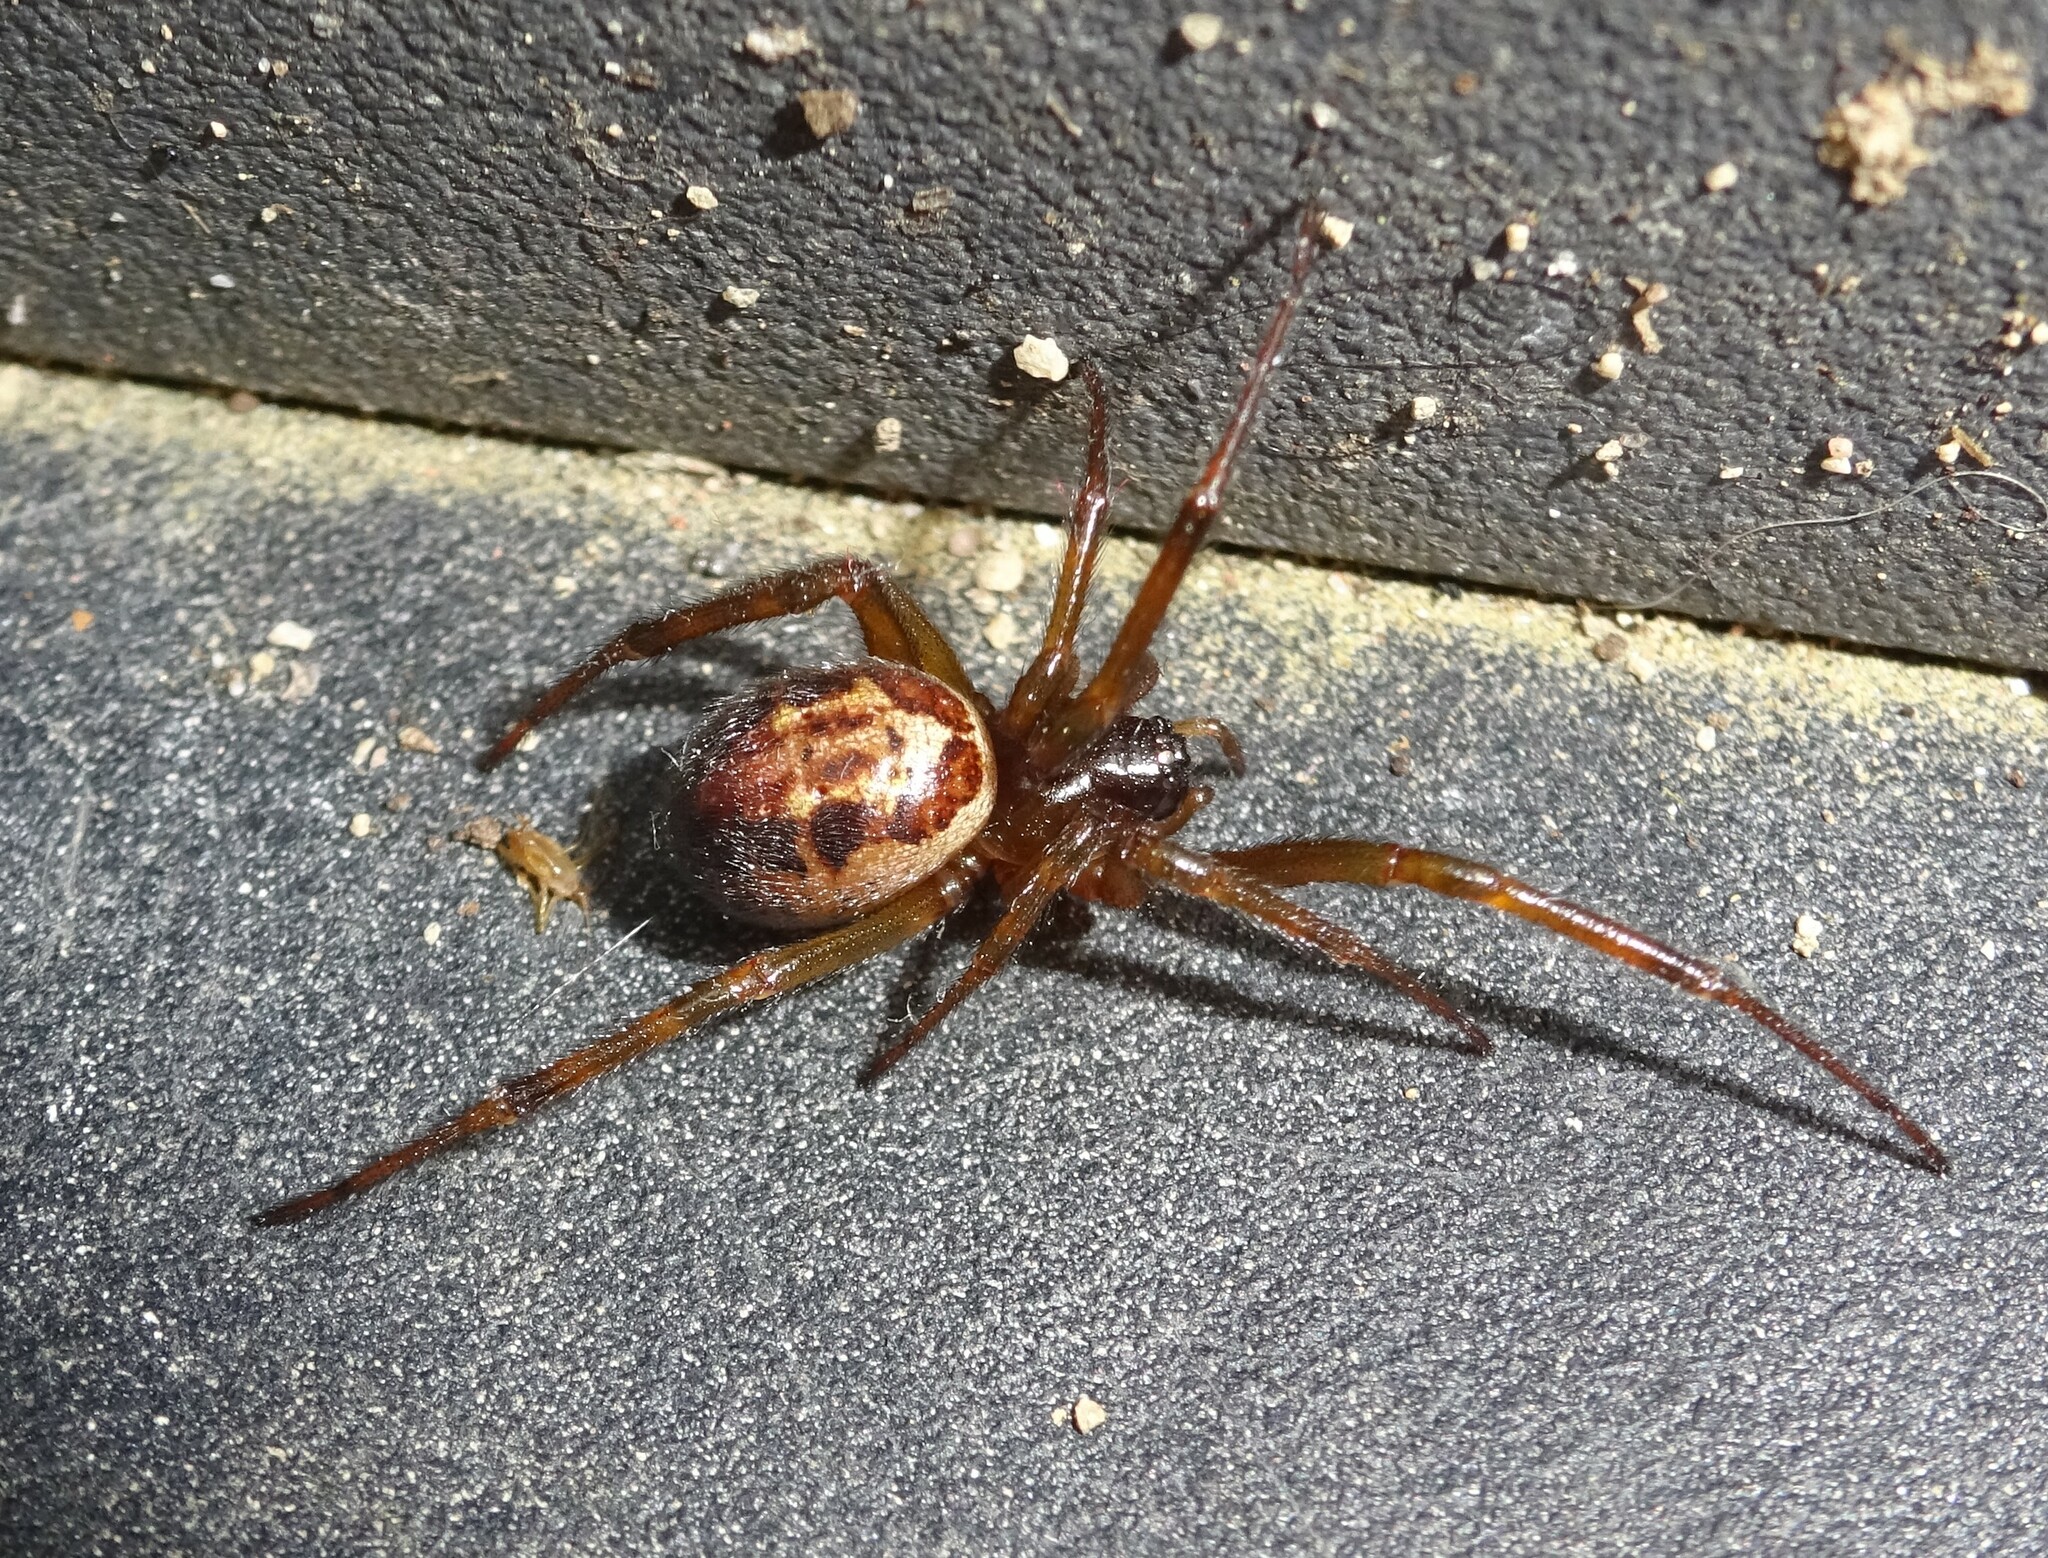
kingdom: Animalia
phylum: Arthropoda
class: Arachnida
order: Araneae
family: Theridiidae
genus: Steatoda
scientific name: Steatoda nobilis
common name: Cobweb weaver
